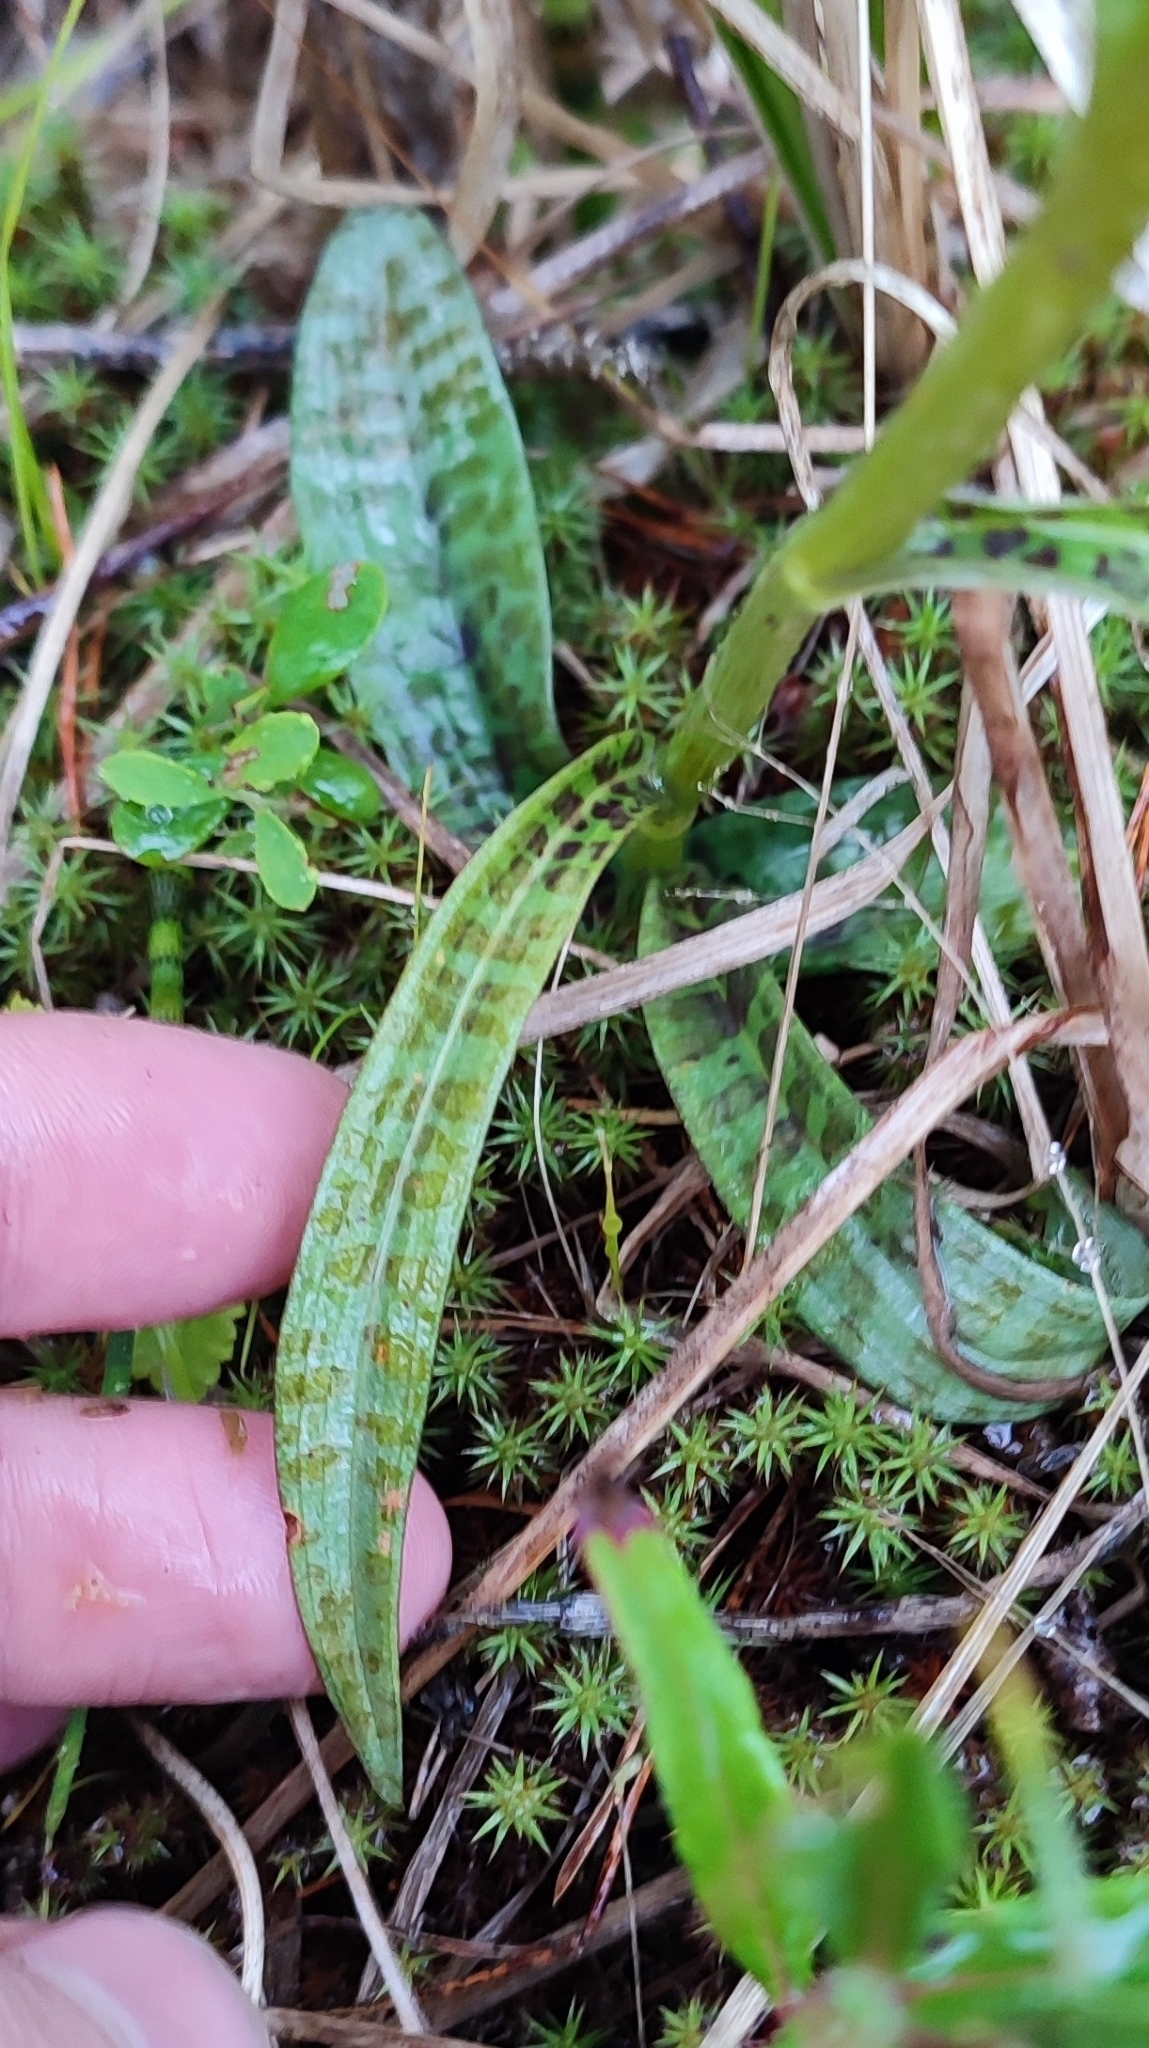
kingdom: Plantae
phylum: Tracheophyta
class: Liliopsida
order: Asparagales
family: Orchidaceae
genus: Dactylorhiza
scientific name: Dactylorhiza maculata
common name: Heath spotted-orchid
